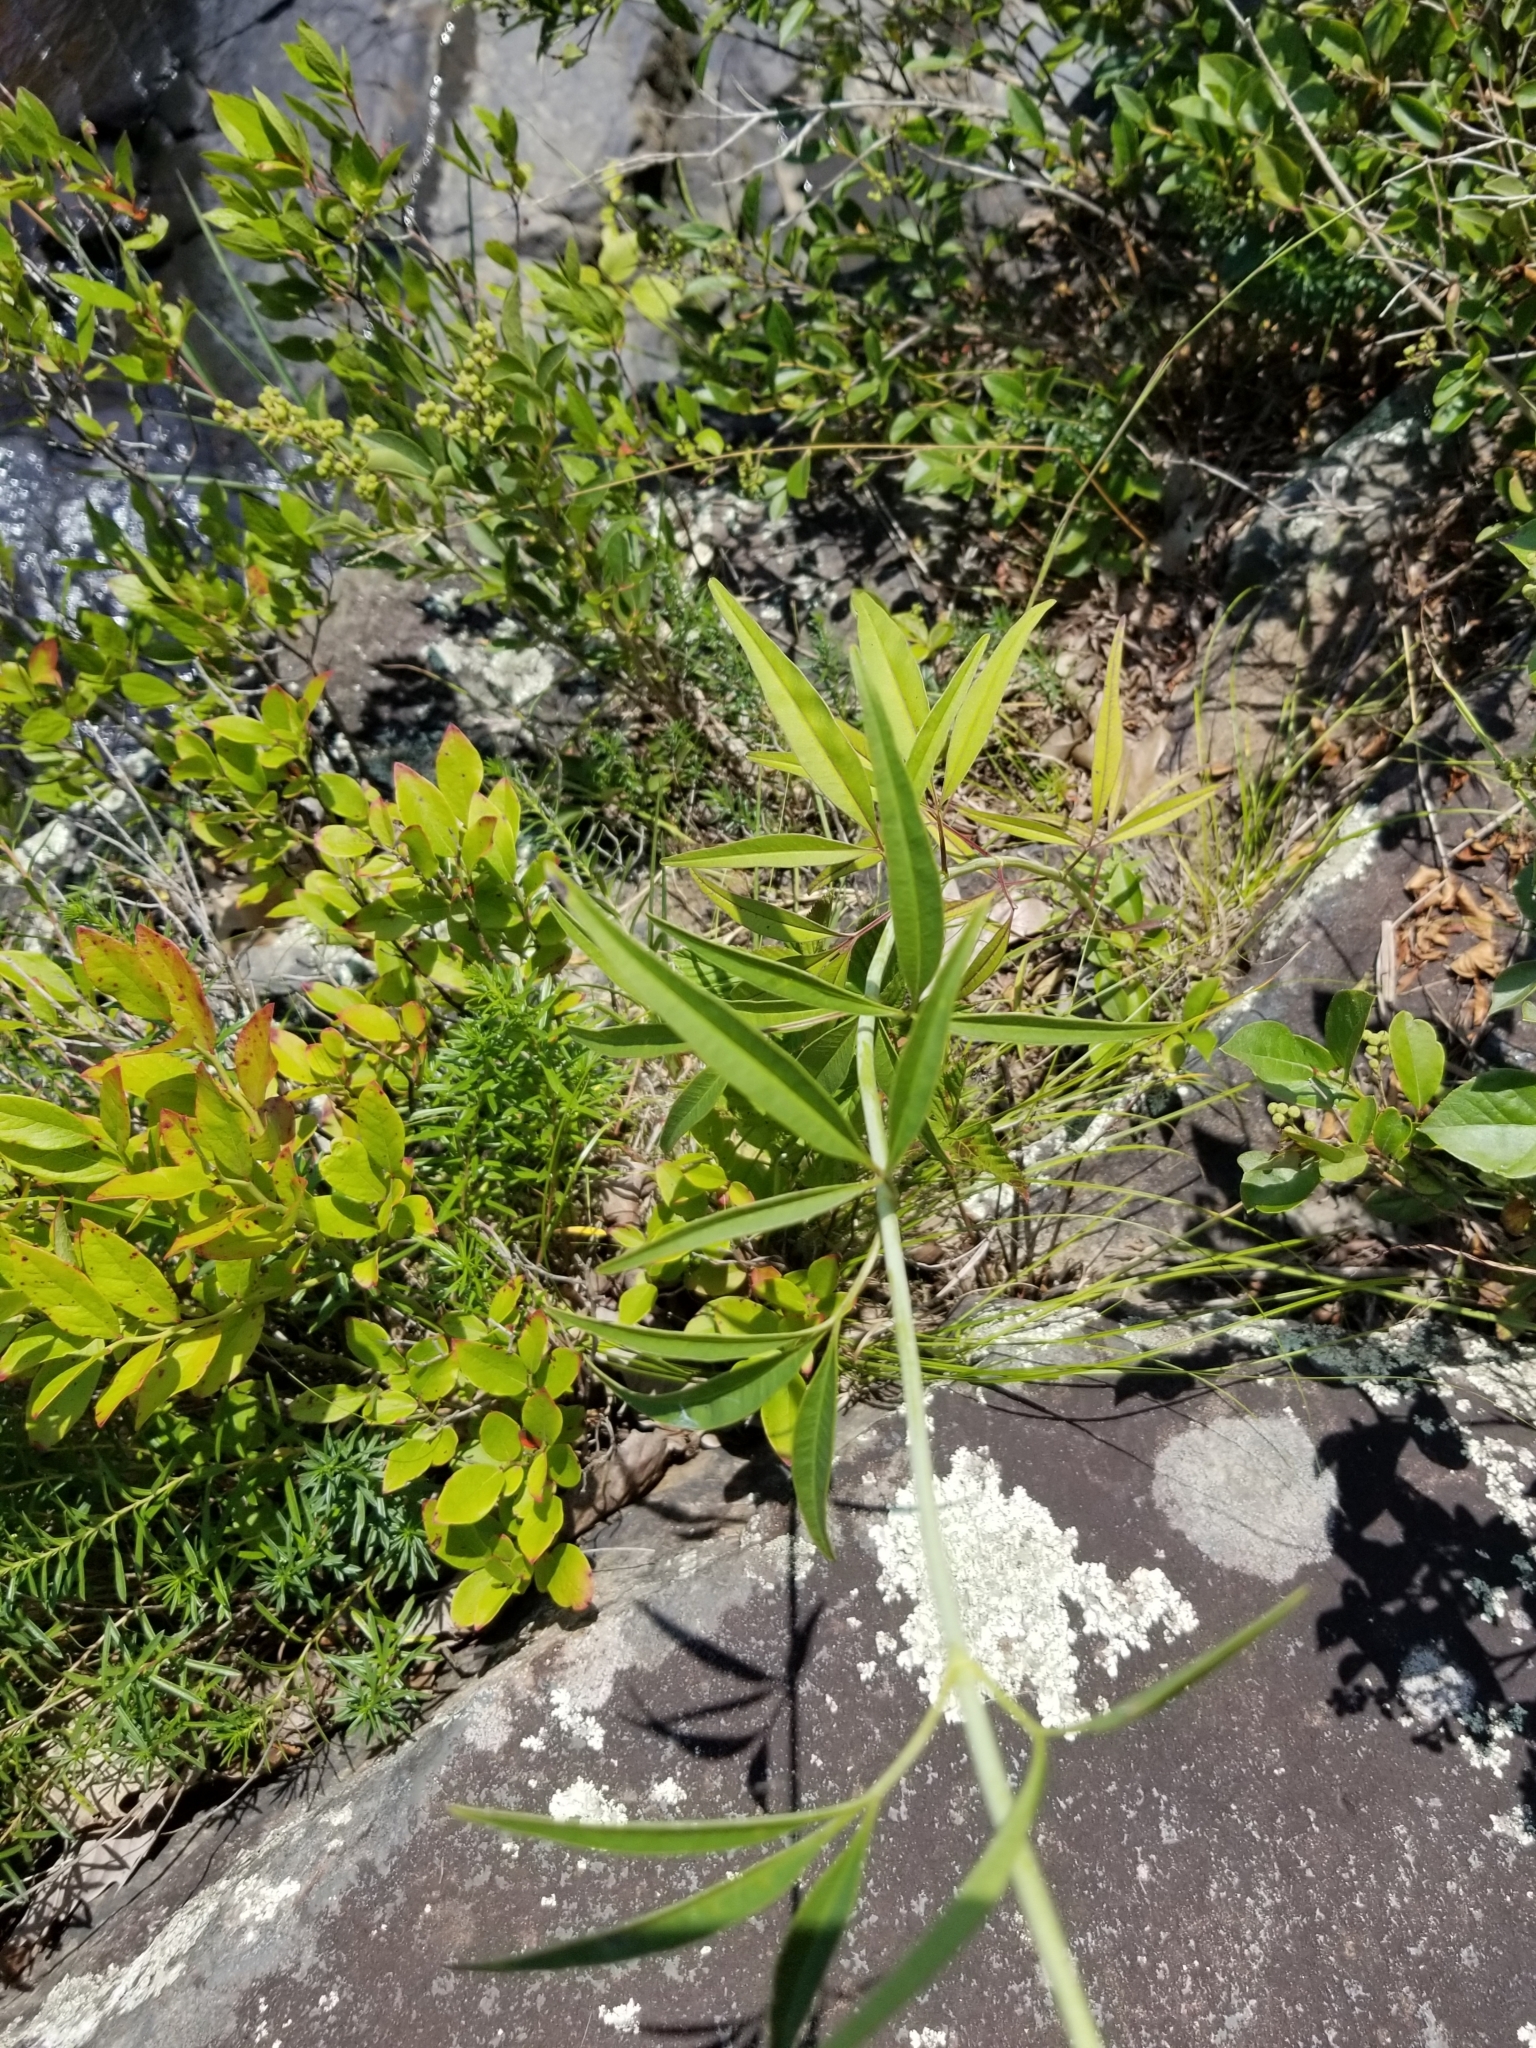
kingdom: Plantae
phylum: Tracheophyta
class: Magnoliopsida
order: Asterales
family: Asteraceae
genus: Coreopsis
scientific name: Coreopsis tripteris
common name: Tall coreopsis
